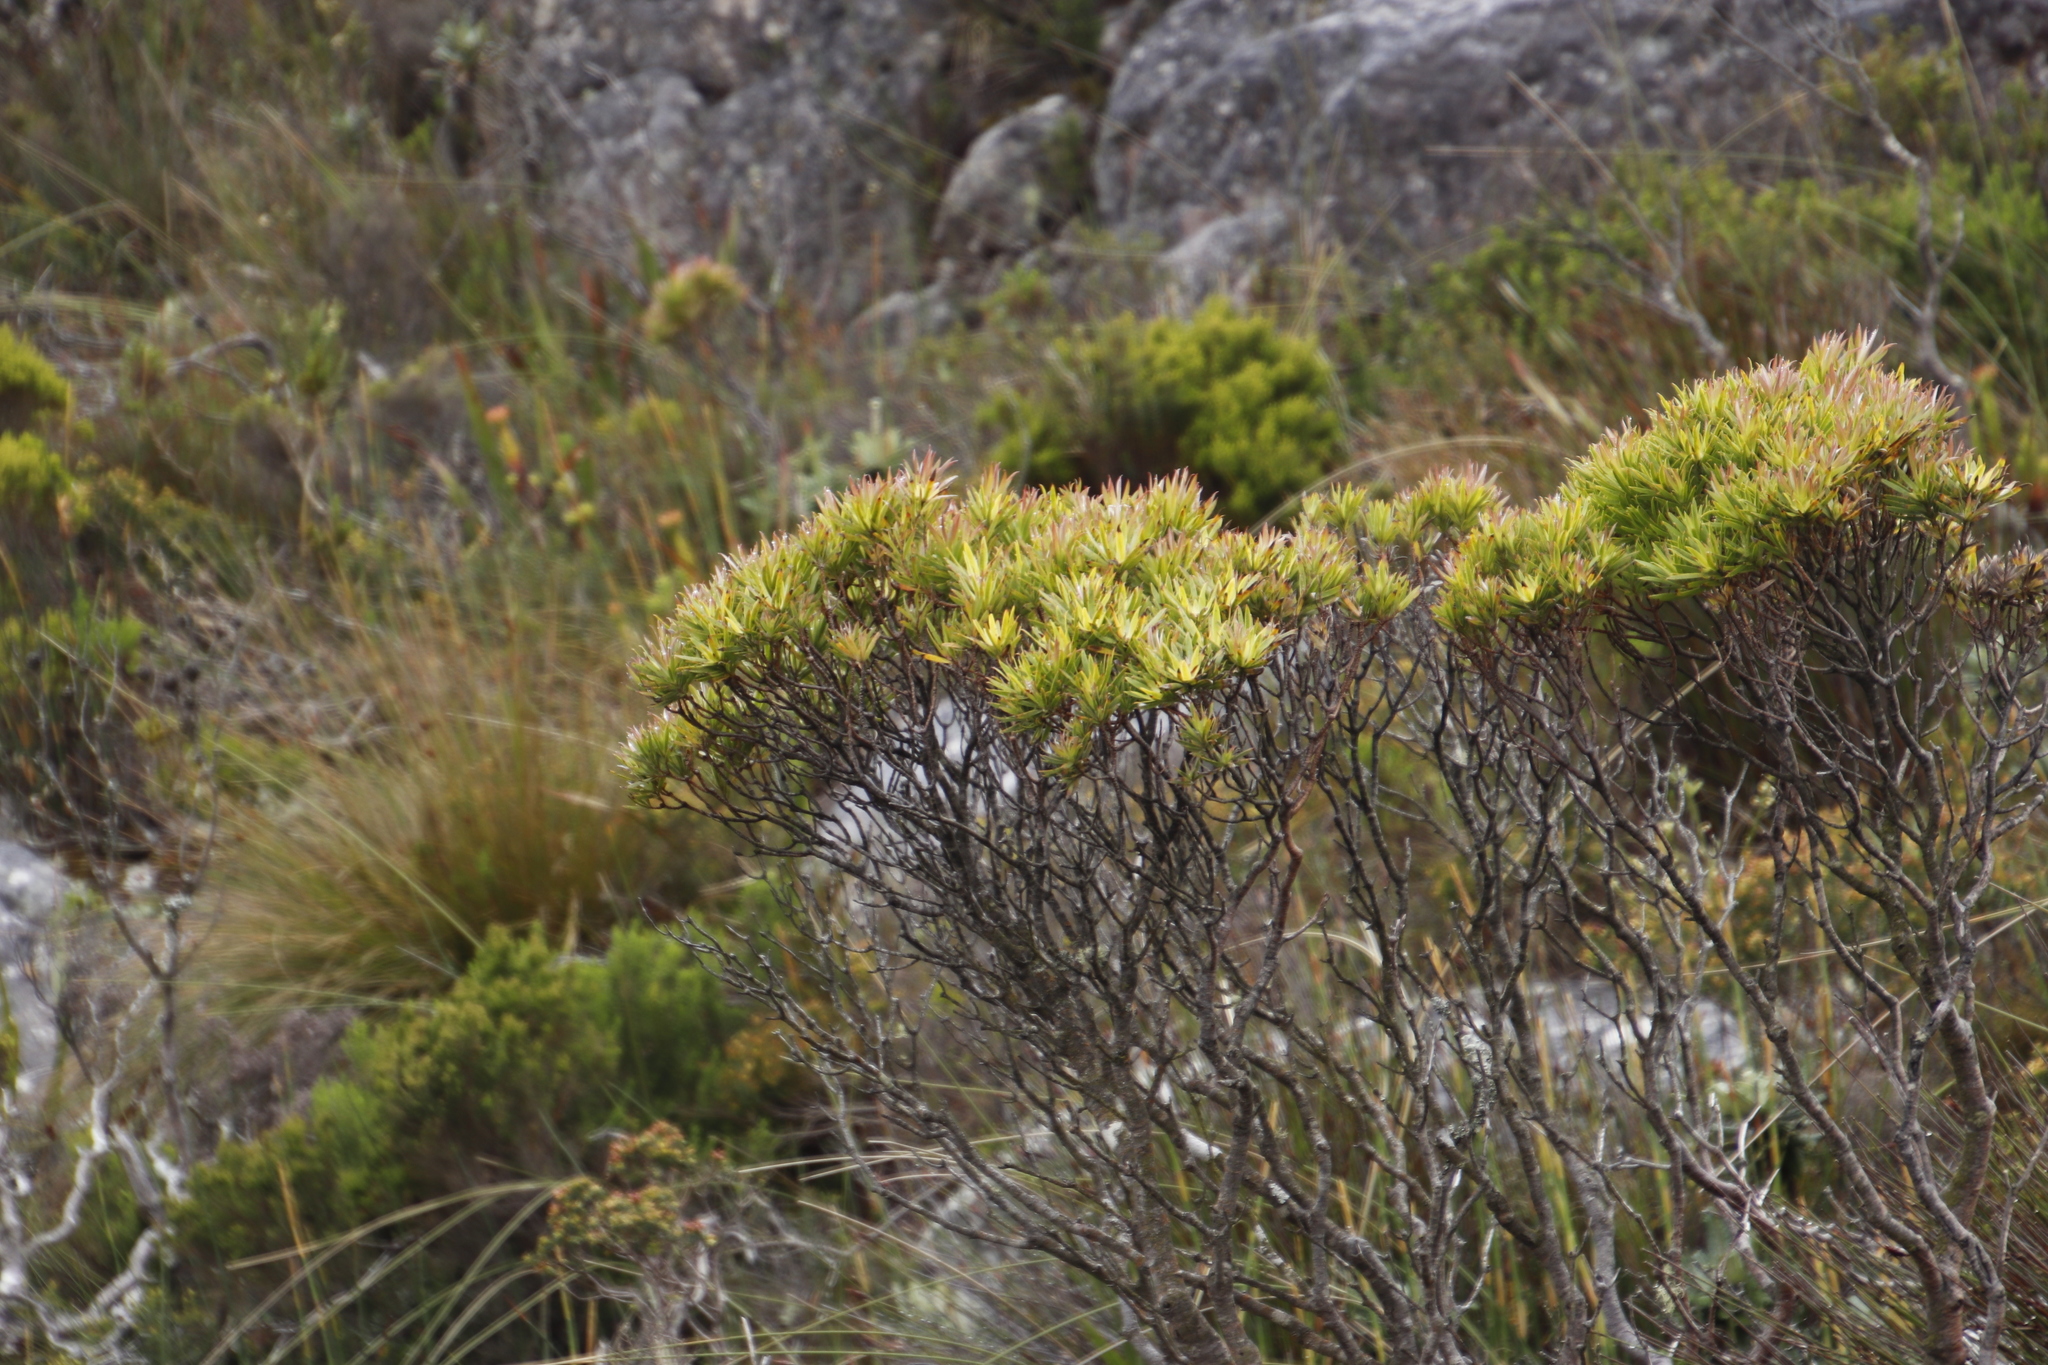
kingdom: Plantae
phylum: Tracheophyta
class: Magnoliopsida
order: Proteales
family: Proteaceae
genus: Leucadendron
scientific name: Leucadendron xanthoconus
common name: Sickle-leaf conebush
